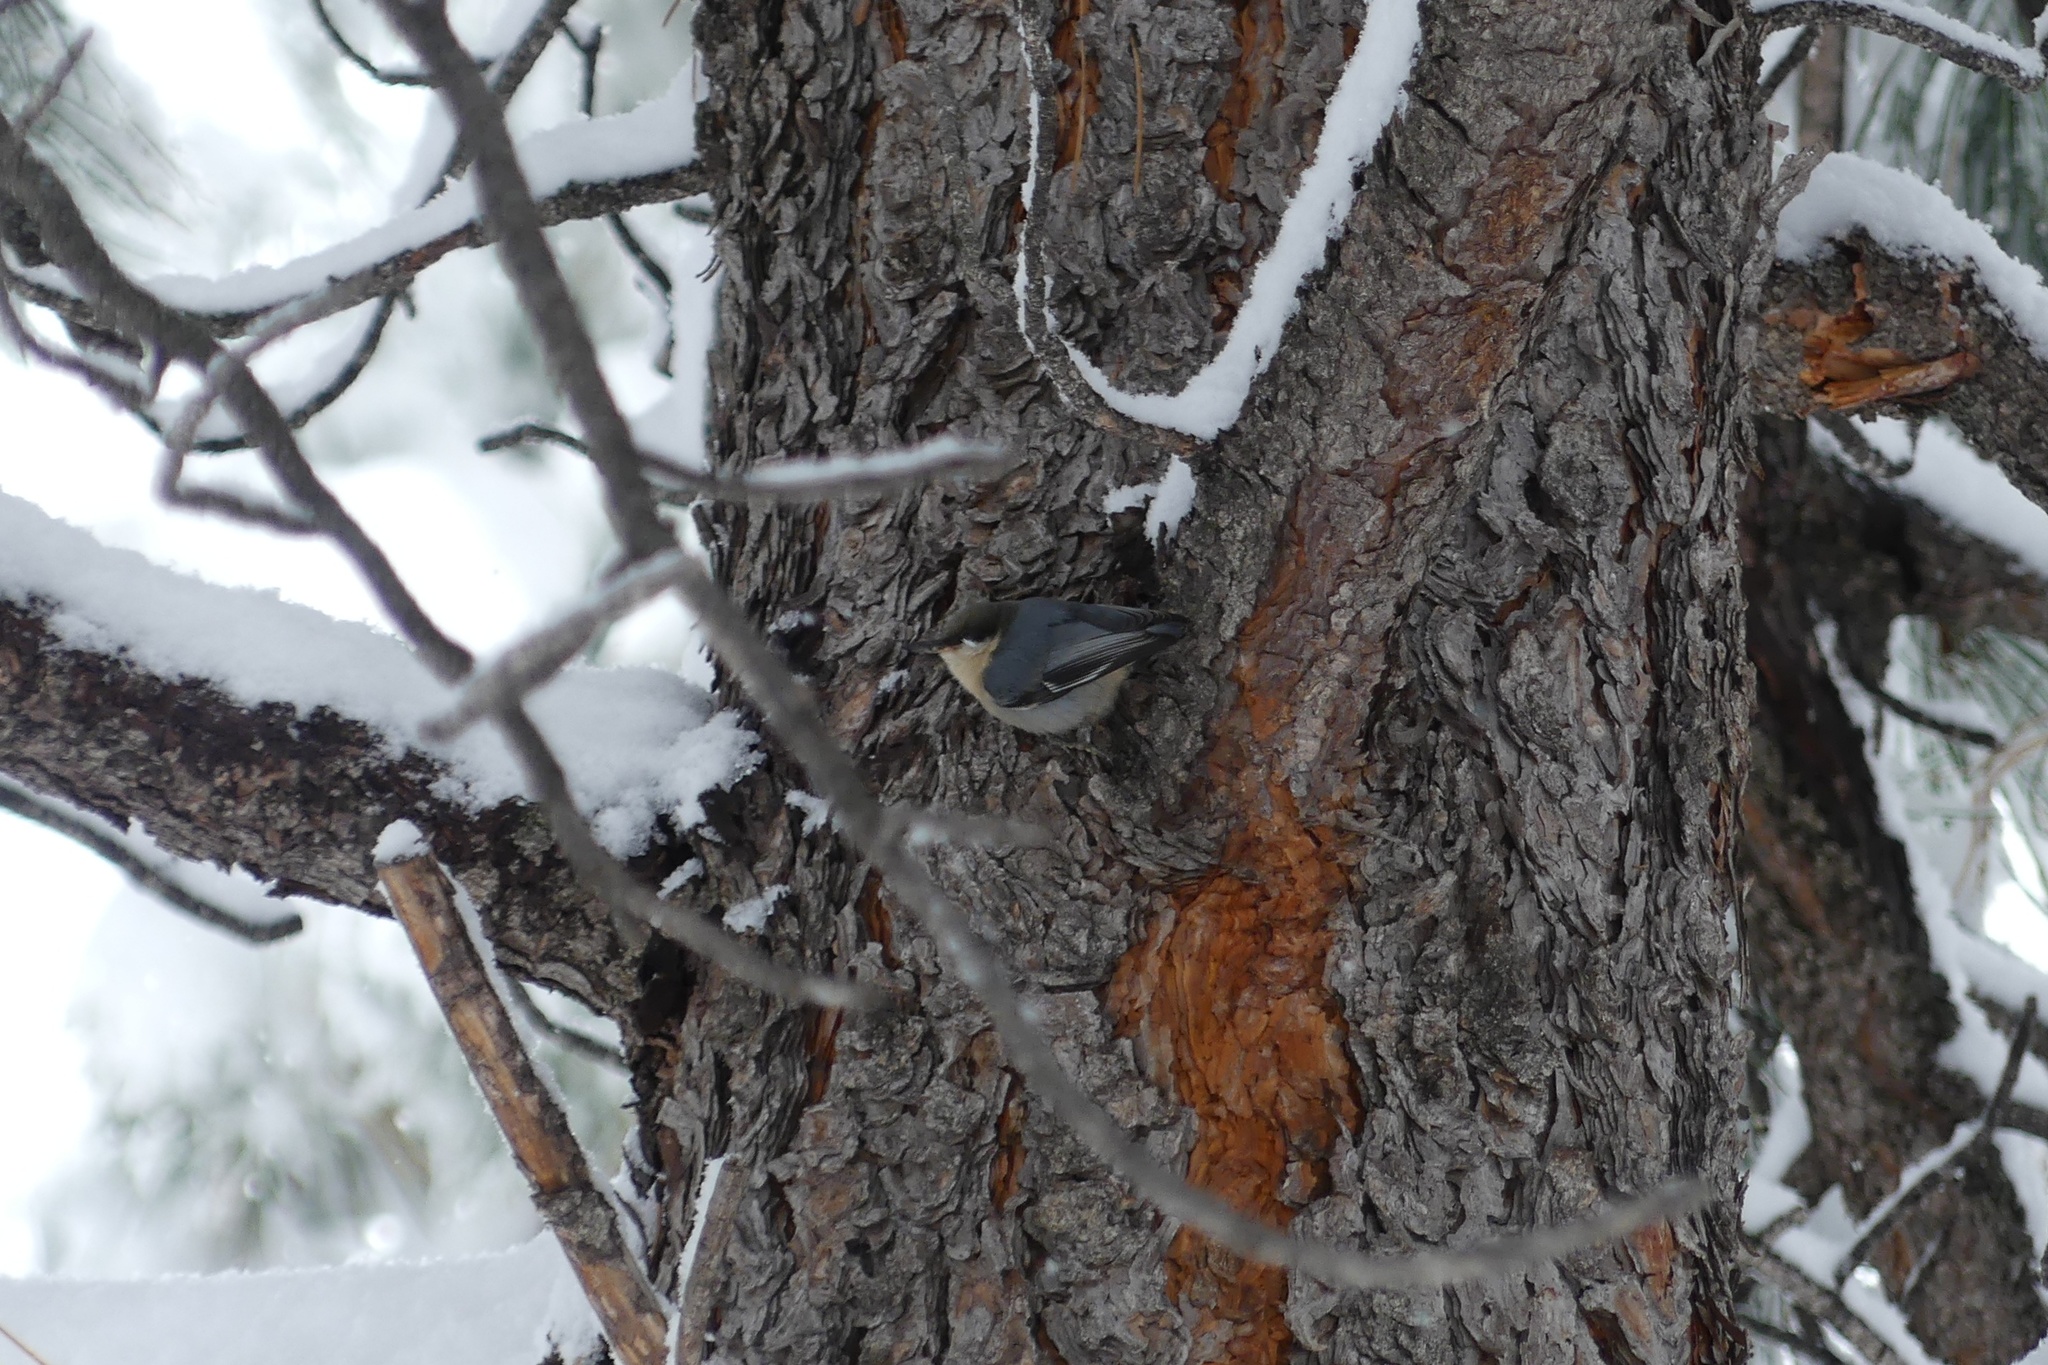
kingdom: Animalia
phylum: Chordata
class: Aves
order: Passeriformes
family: Sittidae
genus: Sitta
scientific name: Sitta pygmaea
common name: Pygmy nuthatch
